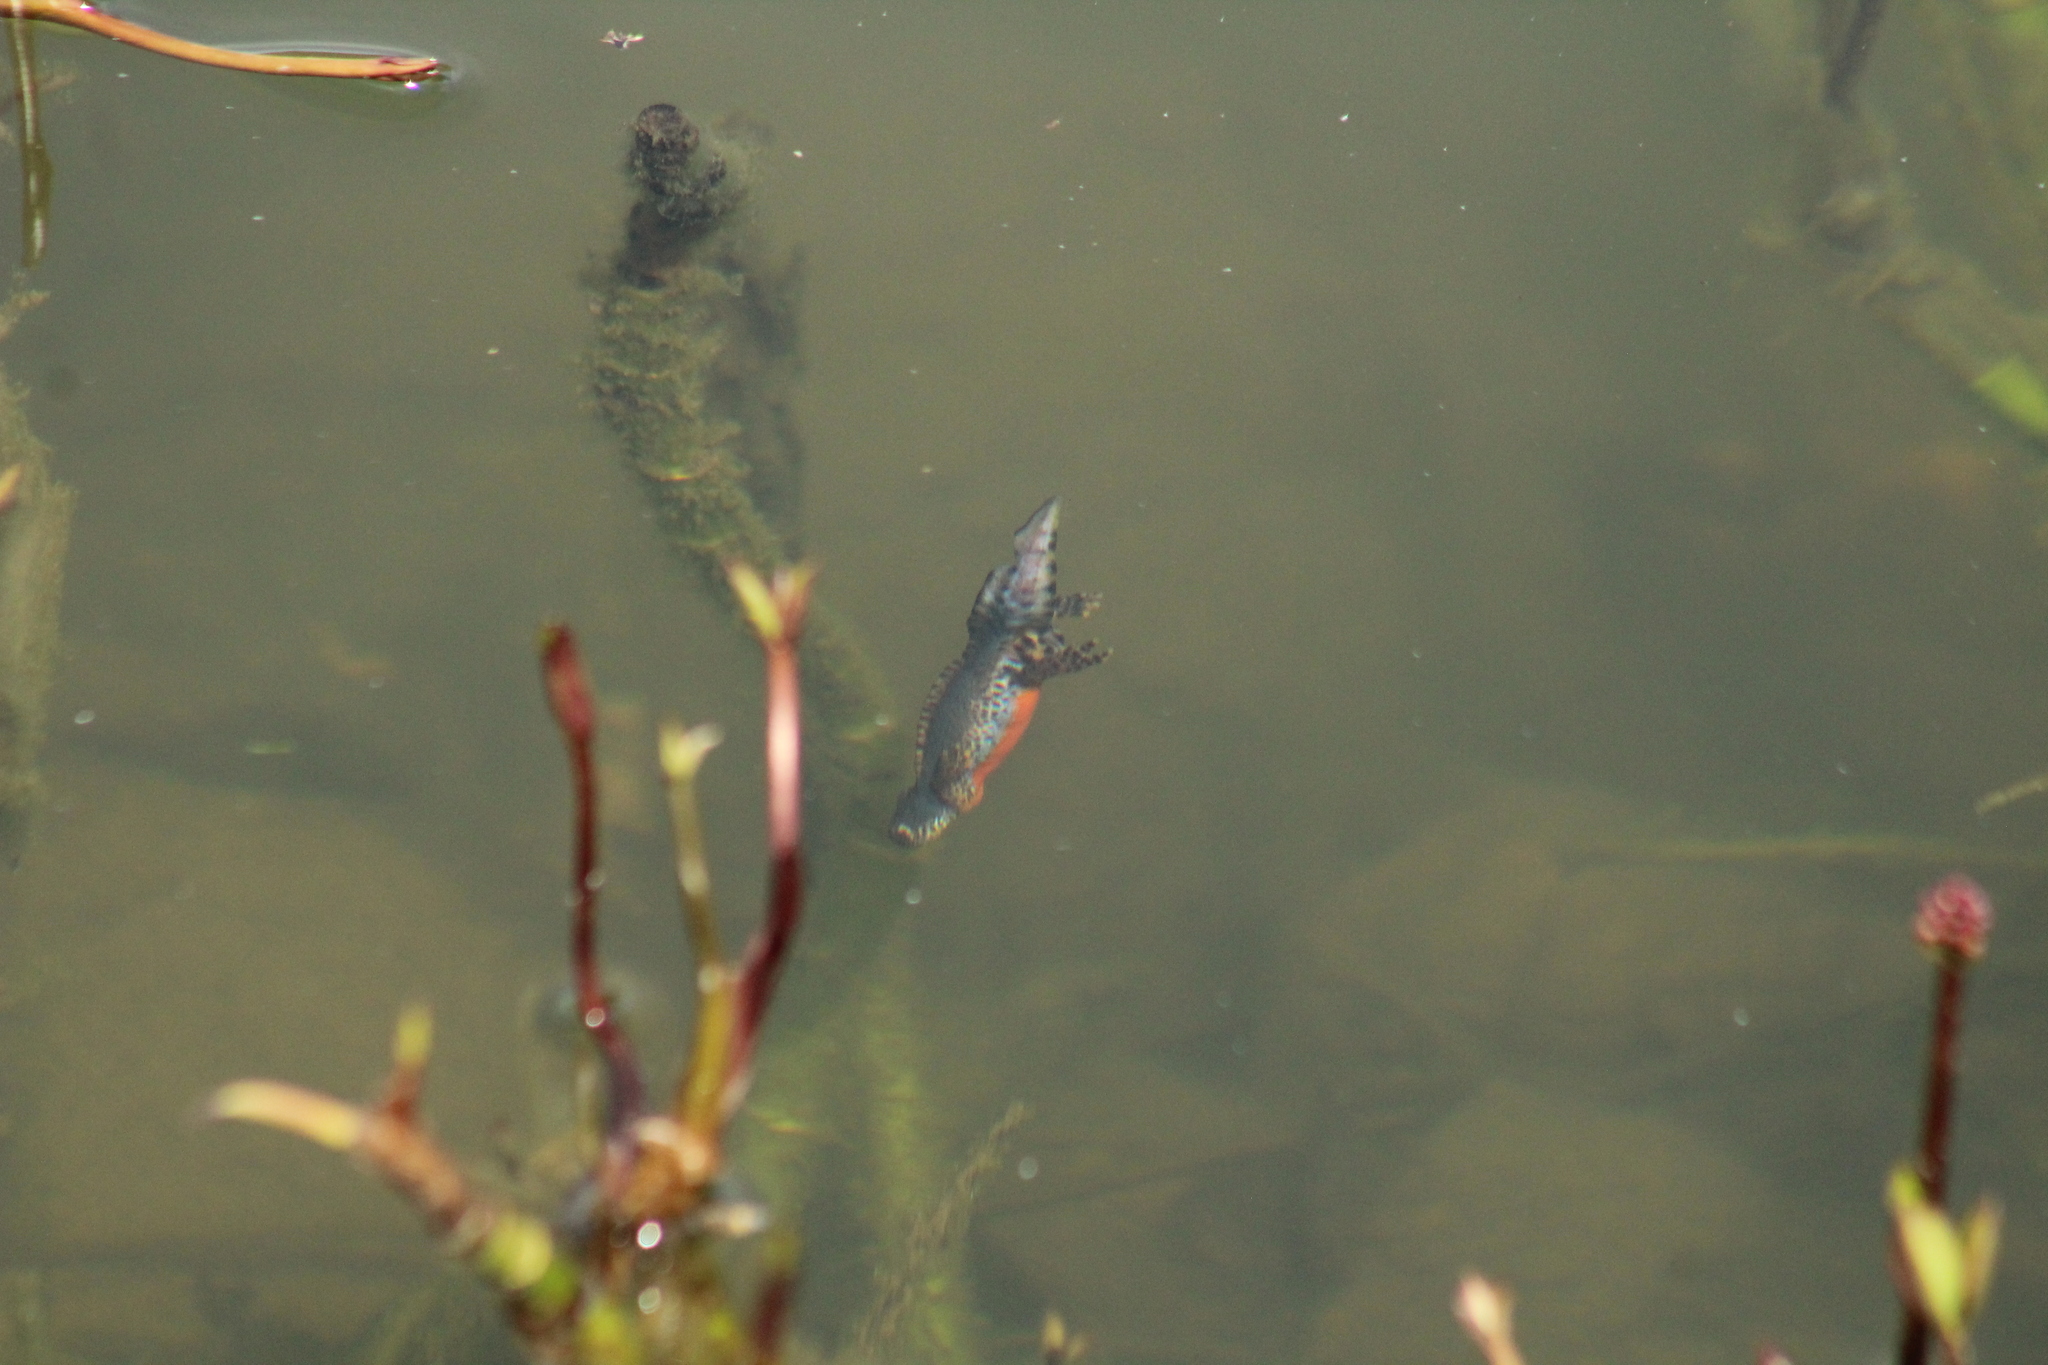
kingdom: Animalia
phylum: Chordata
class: Amphibia
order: Caudata
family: Salamandridae
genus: Ichthyosaura
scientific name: Ichthyosaura alpestris
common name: Alpine newt
